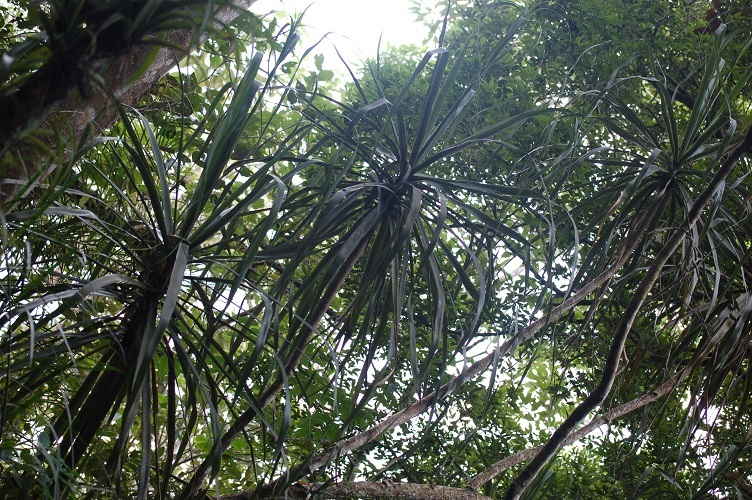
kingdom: Plantae
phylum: Tracheophyta
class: Liliopsida
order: Asparagales
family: Asparagaceae
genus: Beaucarnea
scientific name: Beaucarnea goldmanii
